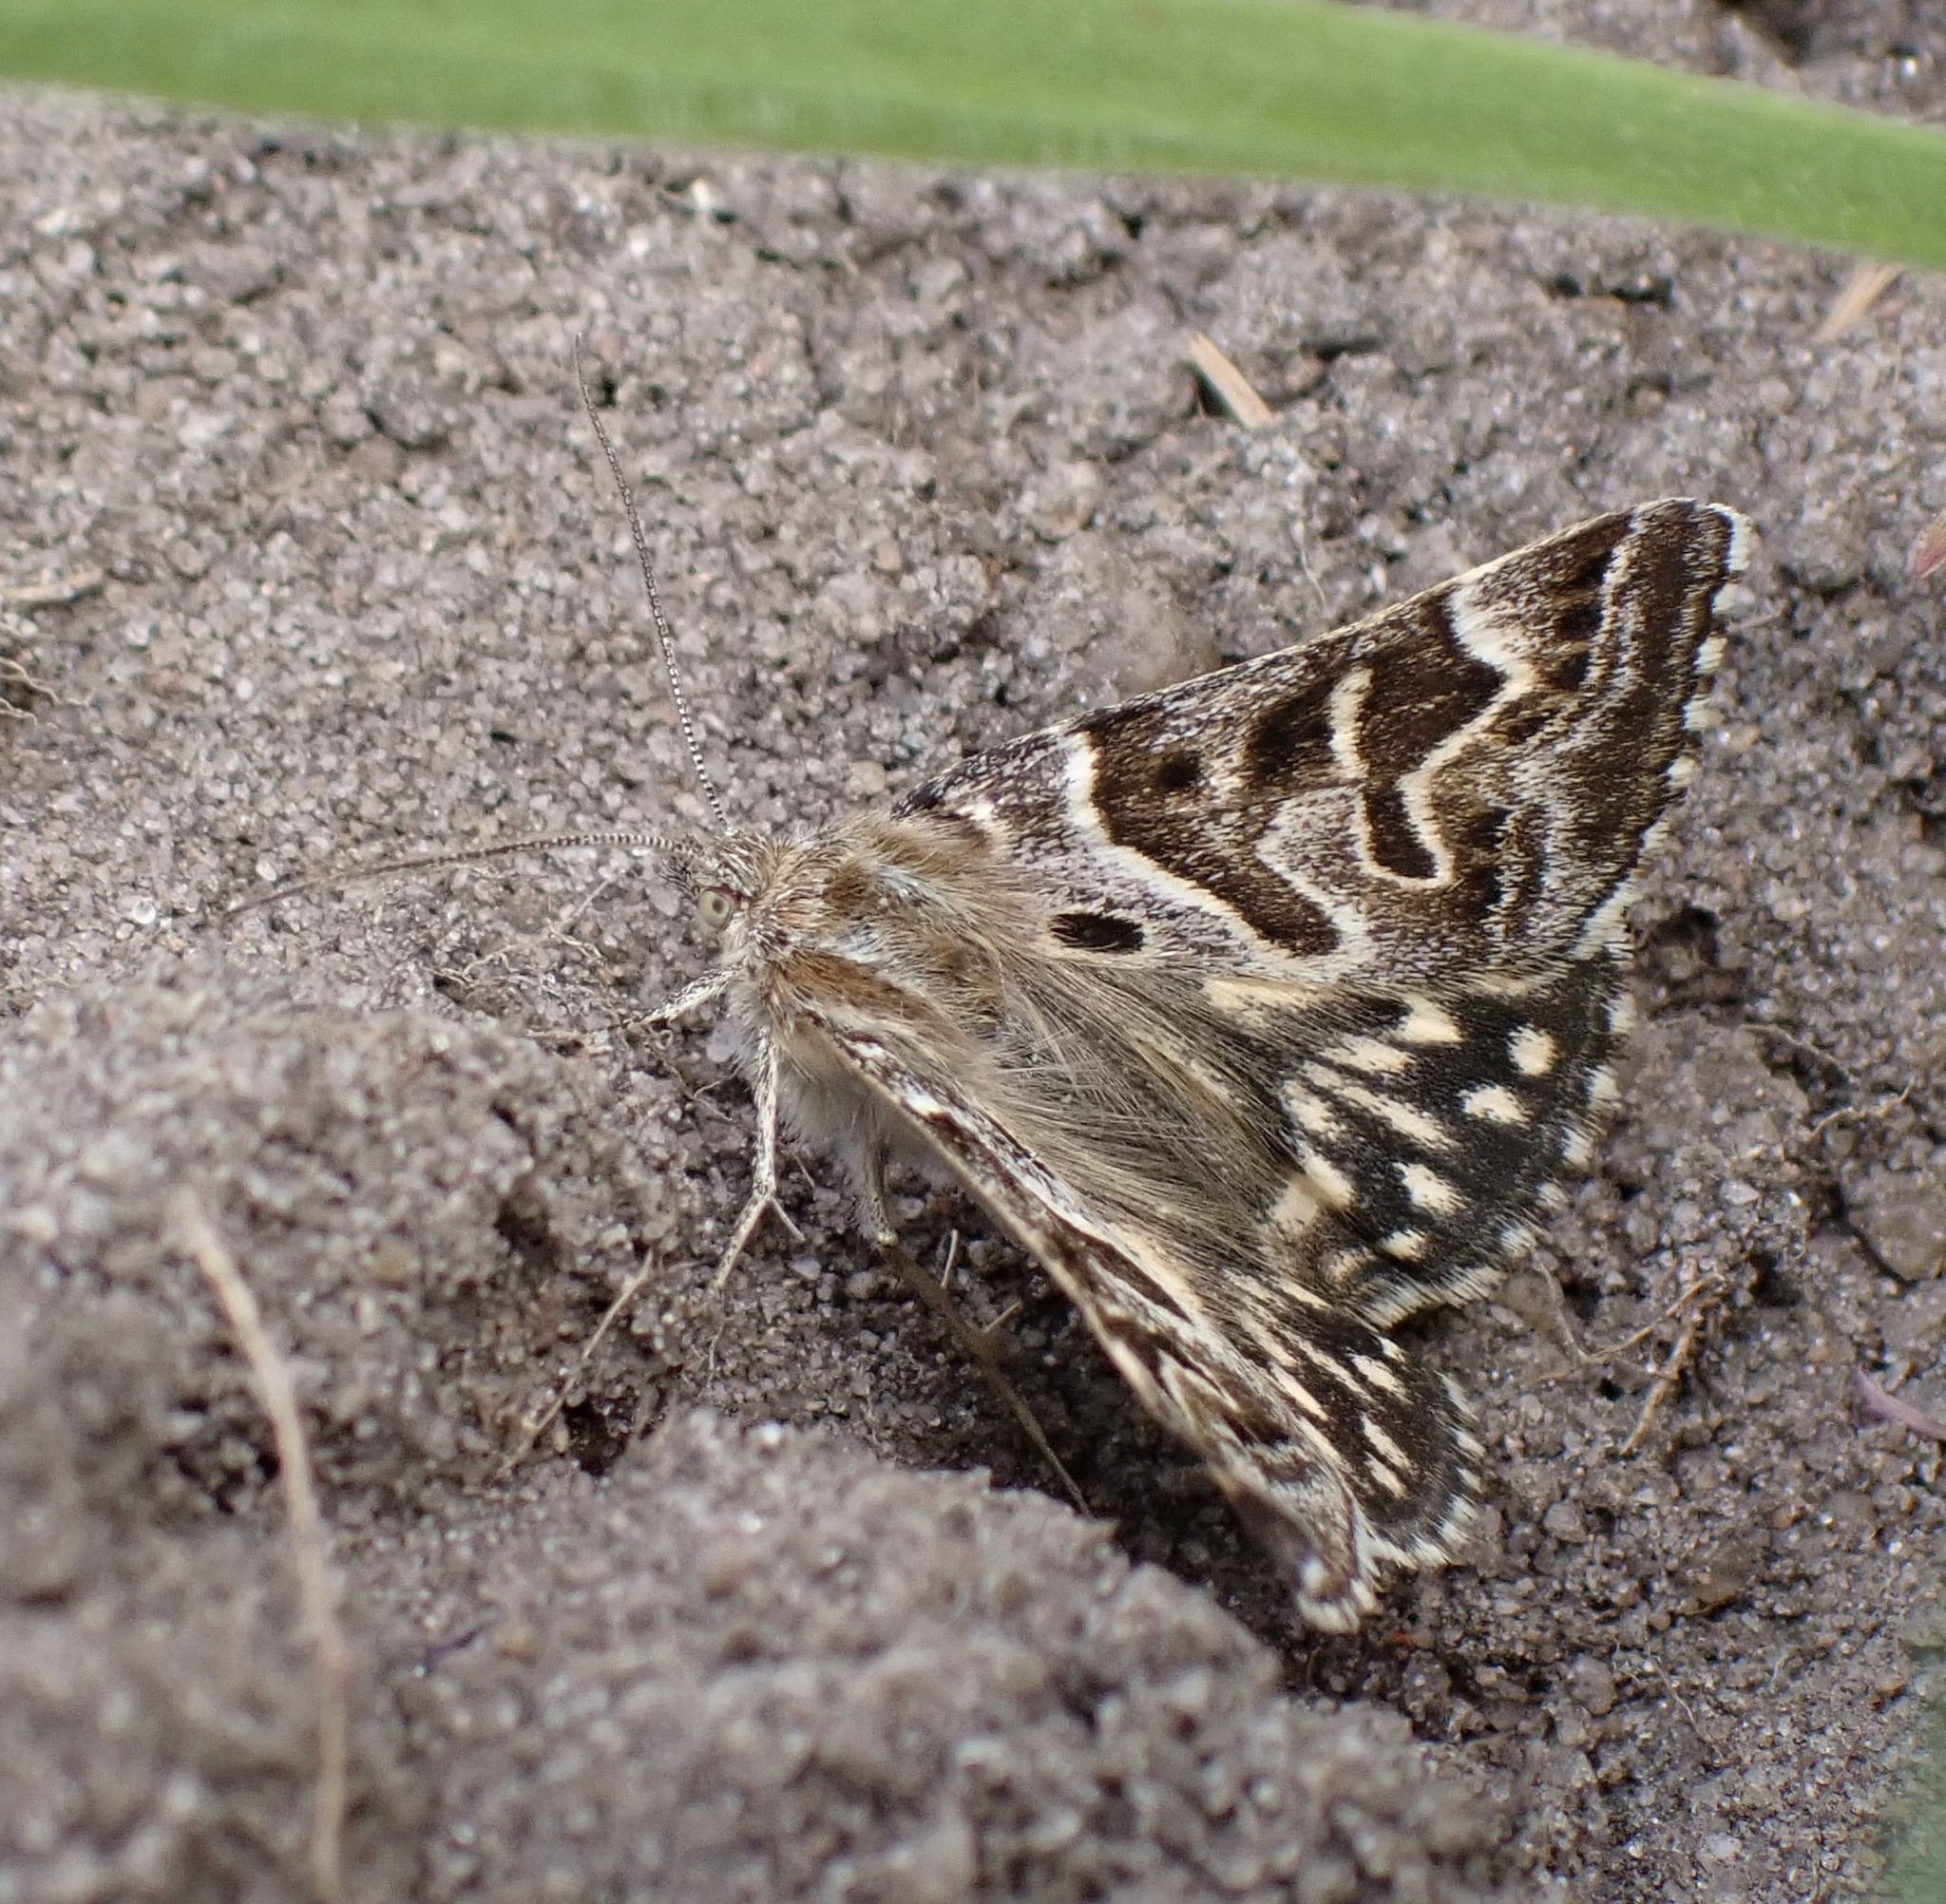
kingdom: Animalia
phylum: Arthropoda
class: Insecta
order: Lepidoptera
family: Erebidae
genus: Callistege
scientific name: Callistege mi
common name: Mother shipton
